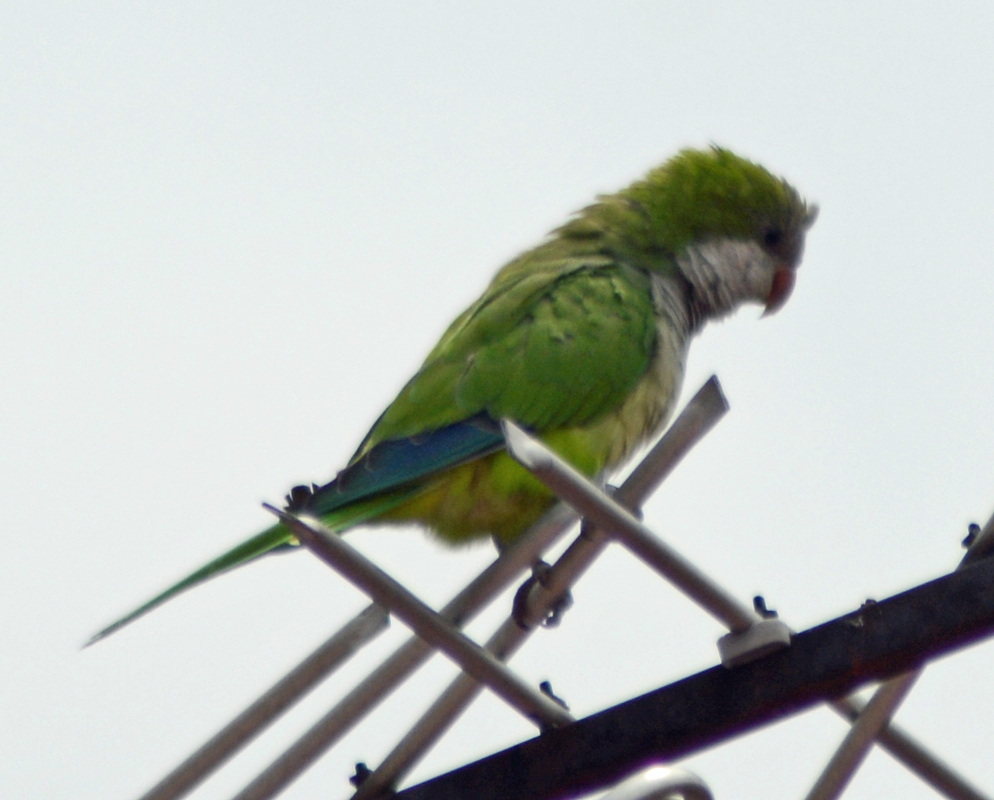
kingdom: Animalia
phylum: Chordata
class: Aves
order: Psittaciformes
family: Psittacidae
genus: Myiopsitta
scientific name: Myiopsitta monachus
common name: Monk parakeet
